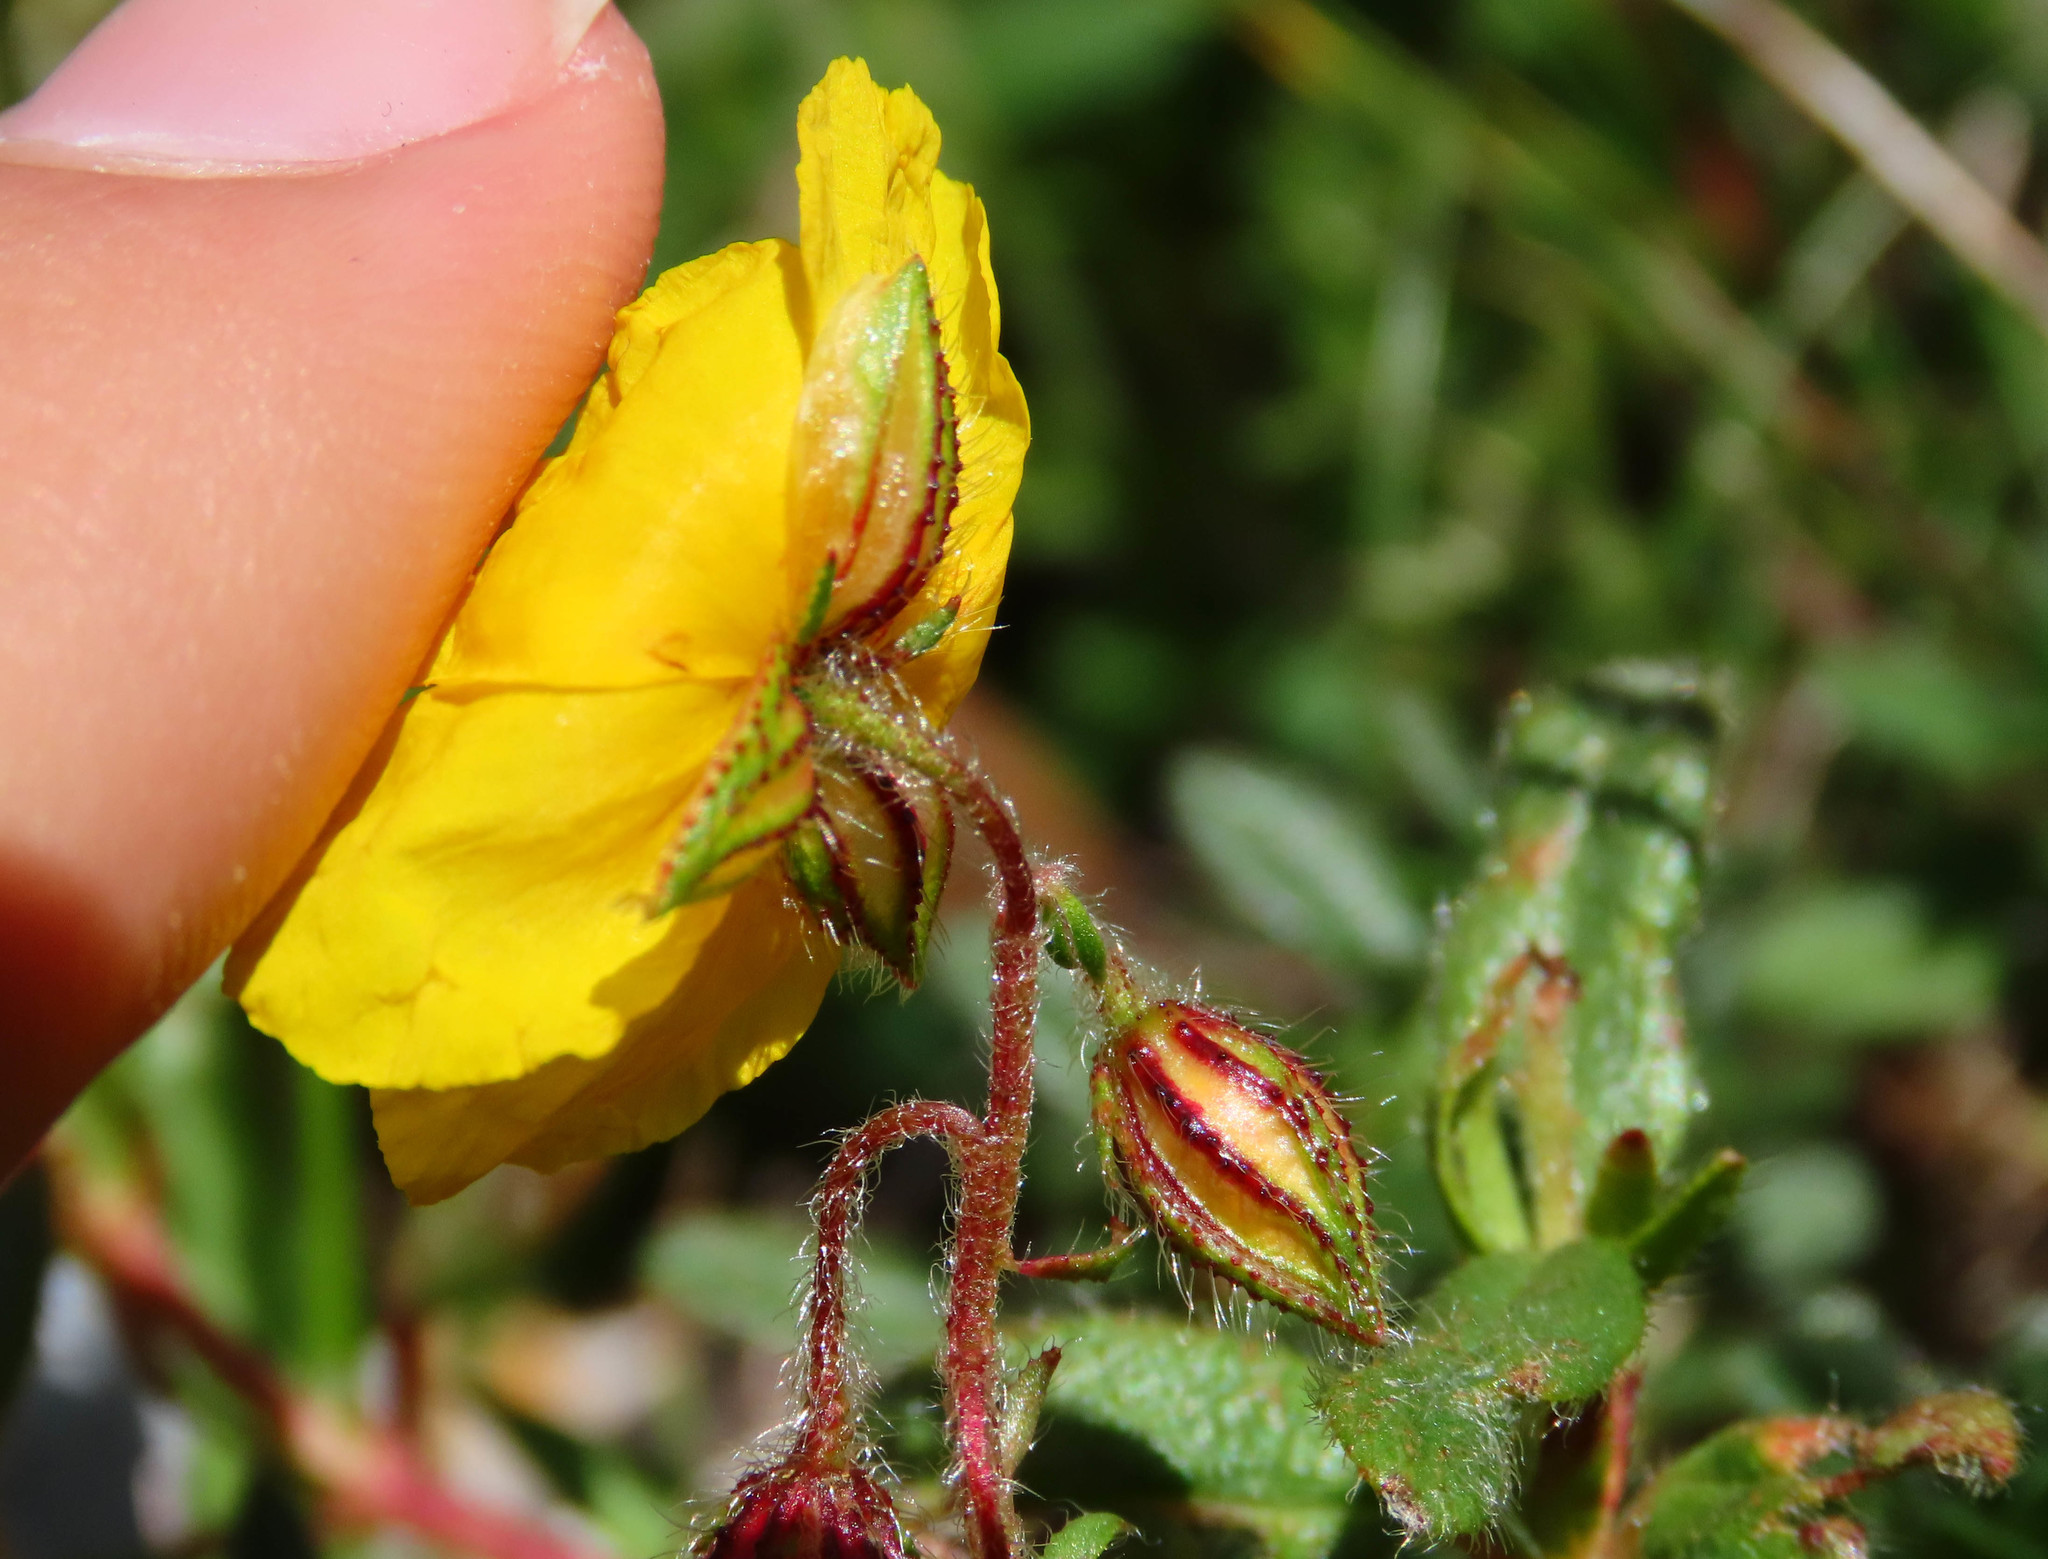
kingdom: Plantae
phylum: Tracheophyta
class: Magnoliopsida
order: Malvales
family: Cistaceae
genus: Helianthemum
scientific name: Helianthemum nummularium
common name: Common rock-rose
